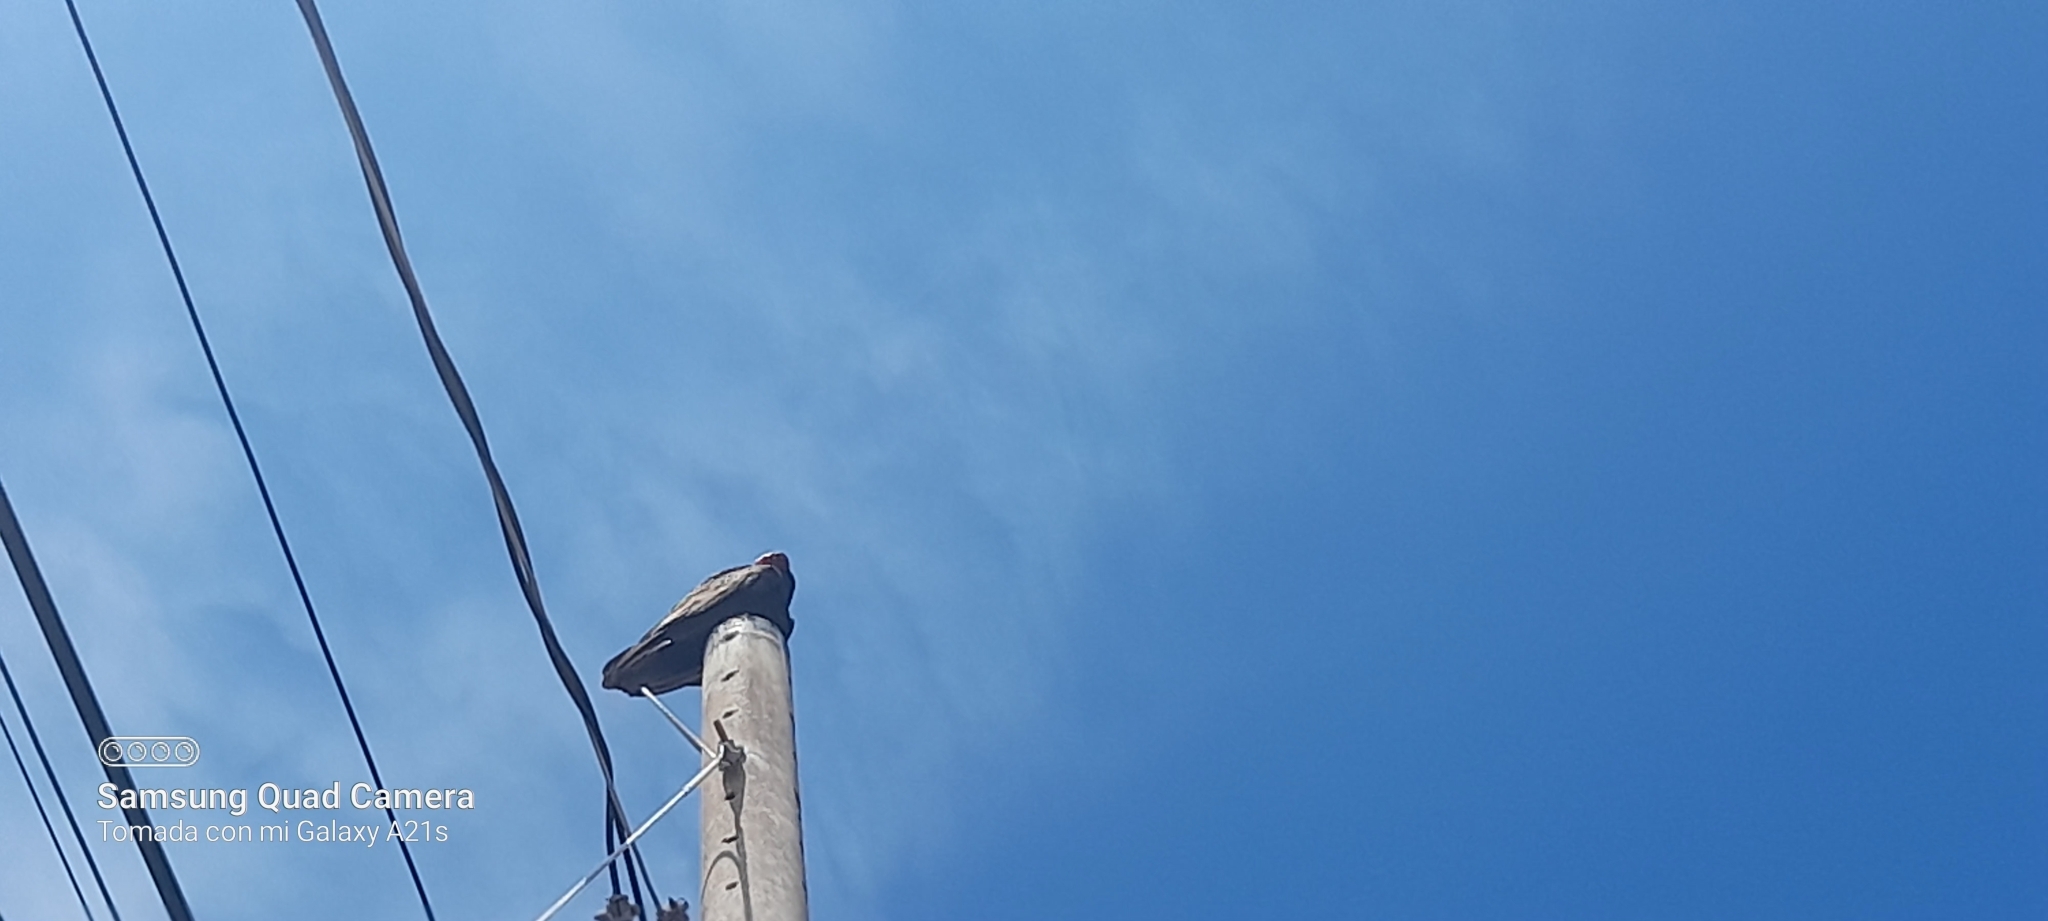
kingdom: Animalia
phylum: Chordata
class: Aves
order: Accipitriformes
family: Cathartidae
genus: Cathartes
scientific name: Cathartes aura
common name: Turkey vulture
